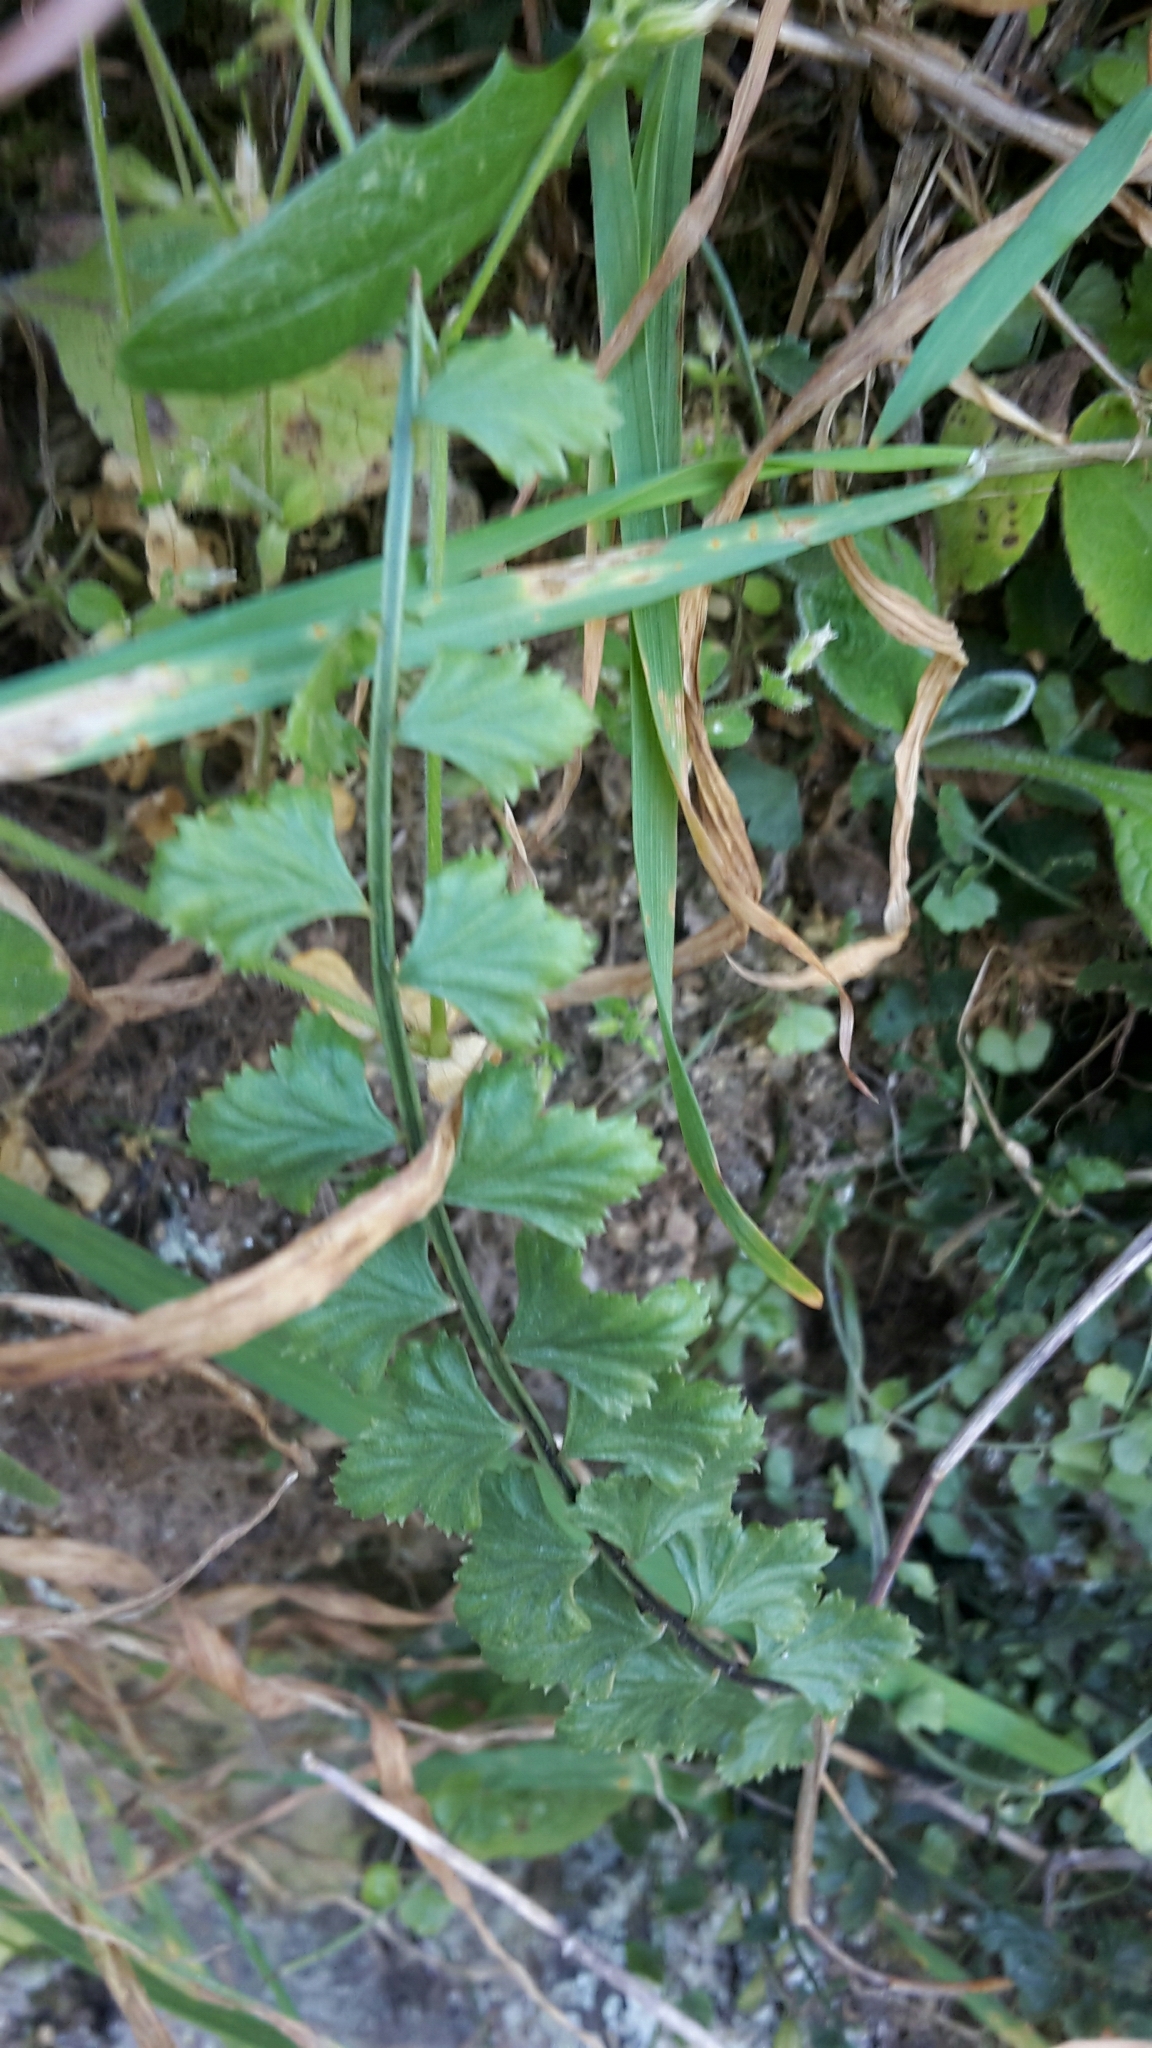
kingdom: Plantae
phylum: Tracheophyta
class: Polypodiopsida
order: Polypodiales
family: Aspleniaceae
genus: Asplenium
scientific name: Asplenium flabellifolium
